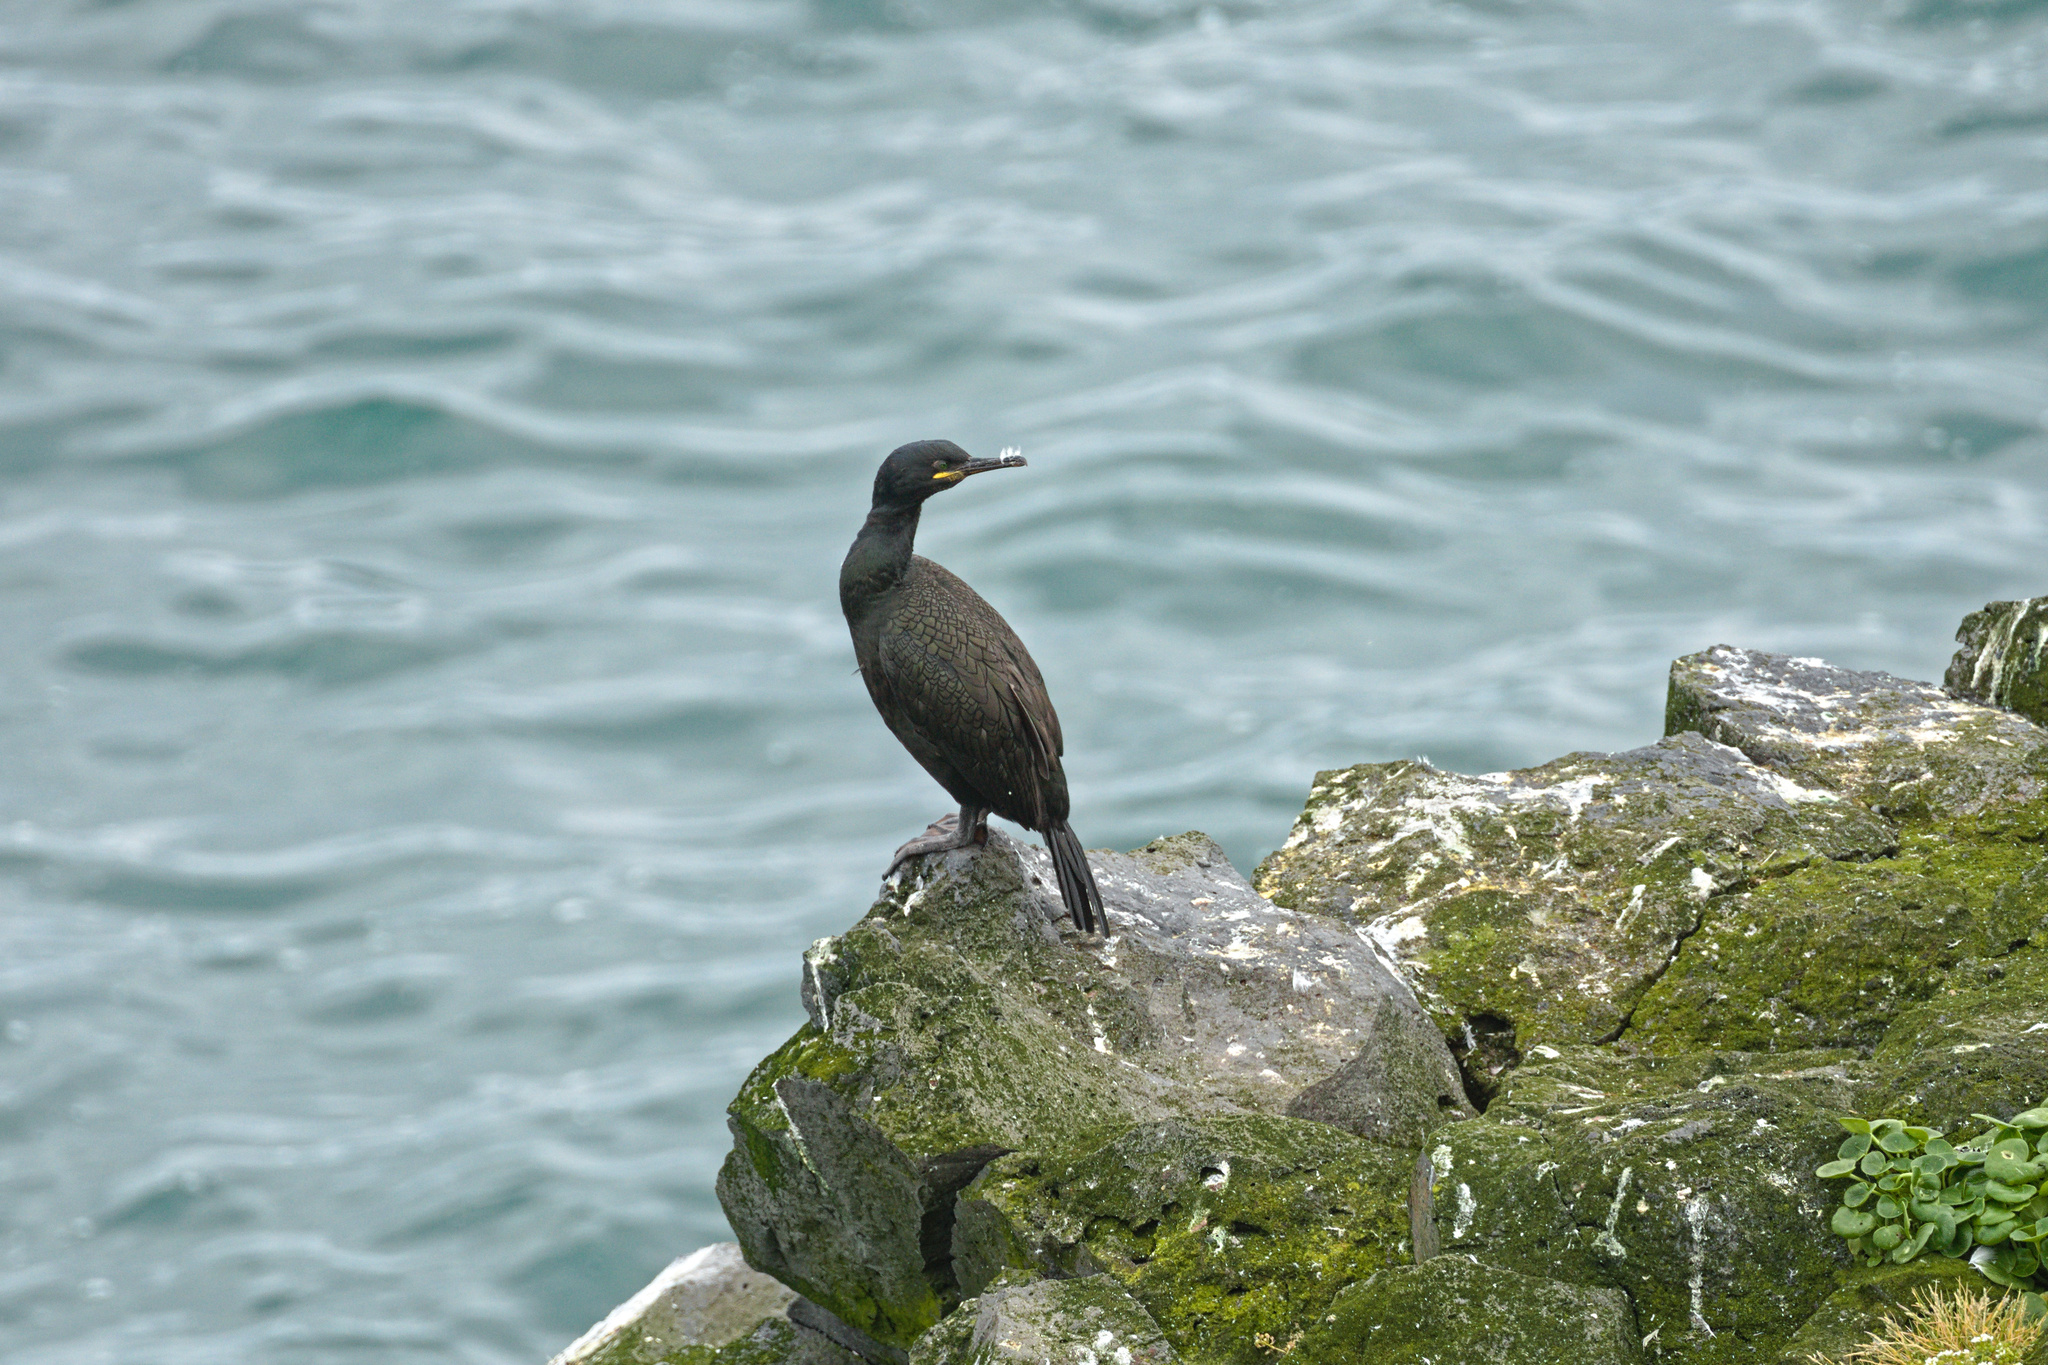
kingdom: Animalia
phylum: Chordata
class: Aves
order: Suliformes
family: Phalacrocoracidae
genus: Phalacrocorax
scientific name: Phalacrocorax aristotelis
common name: European shag
